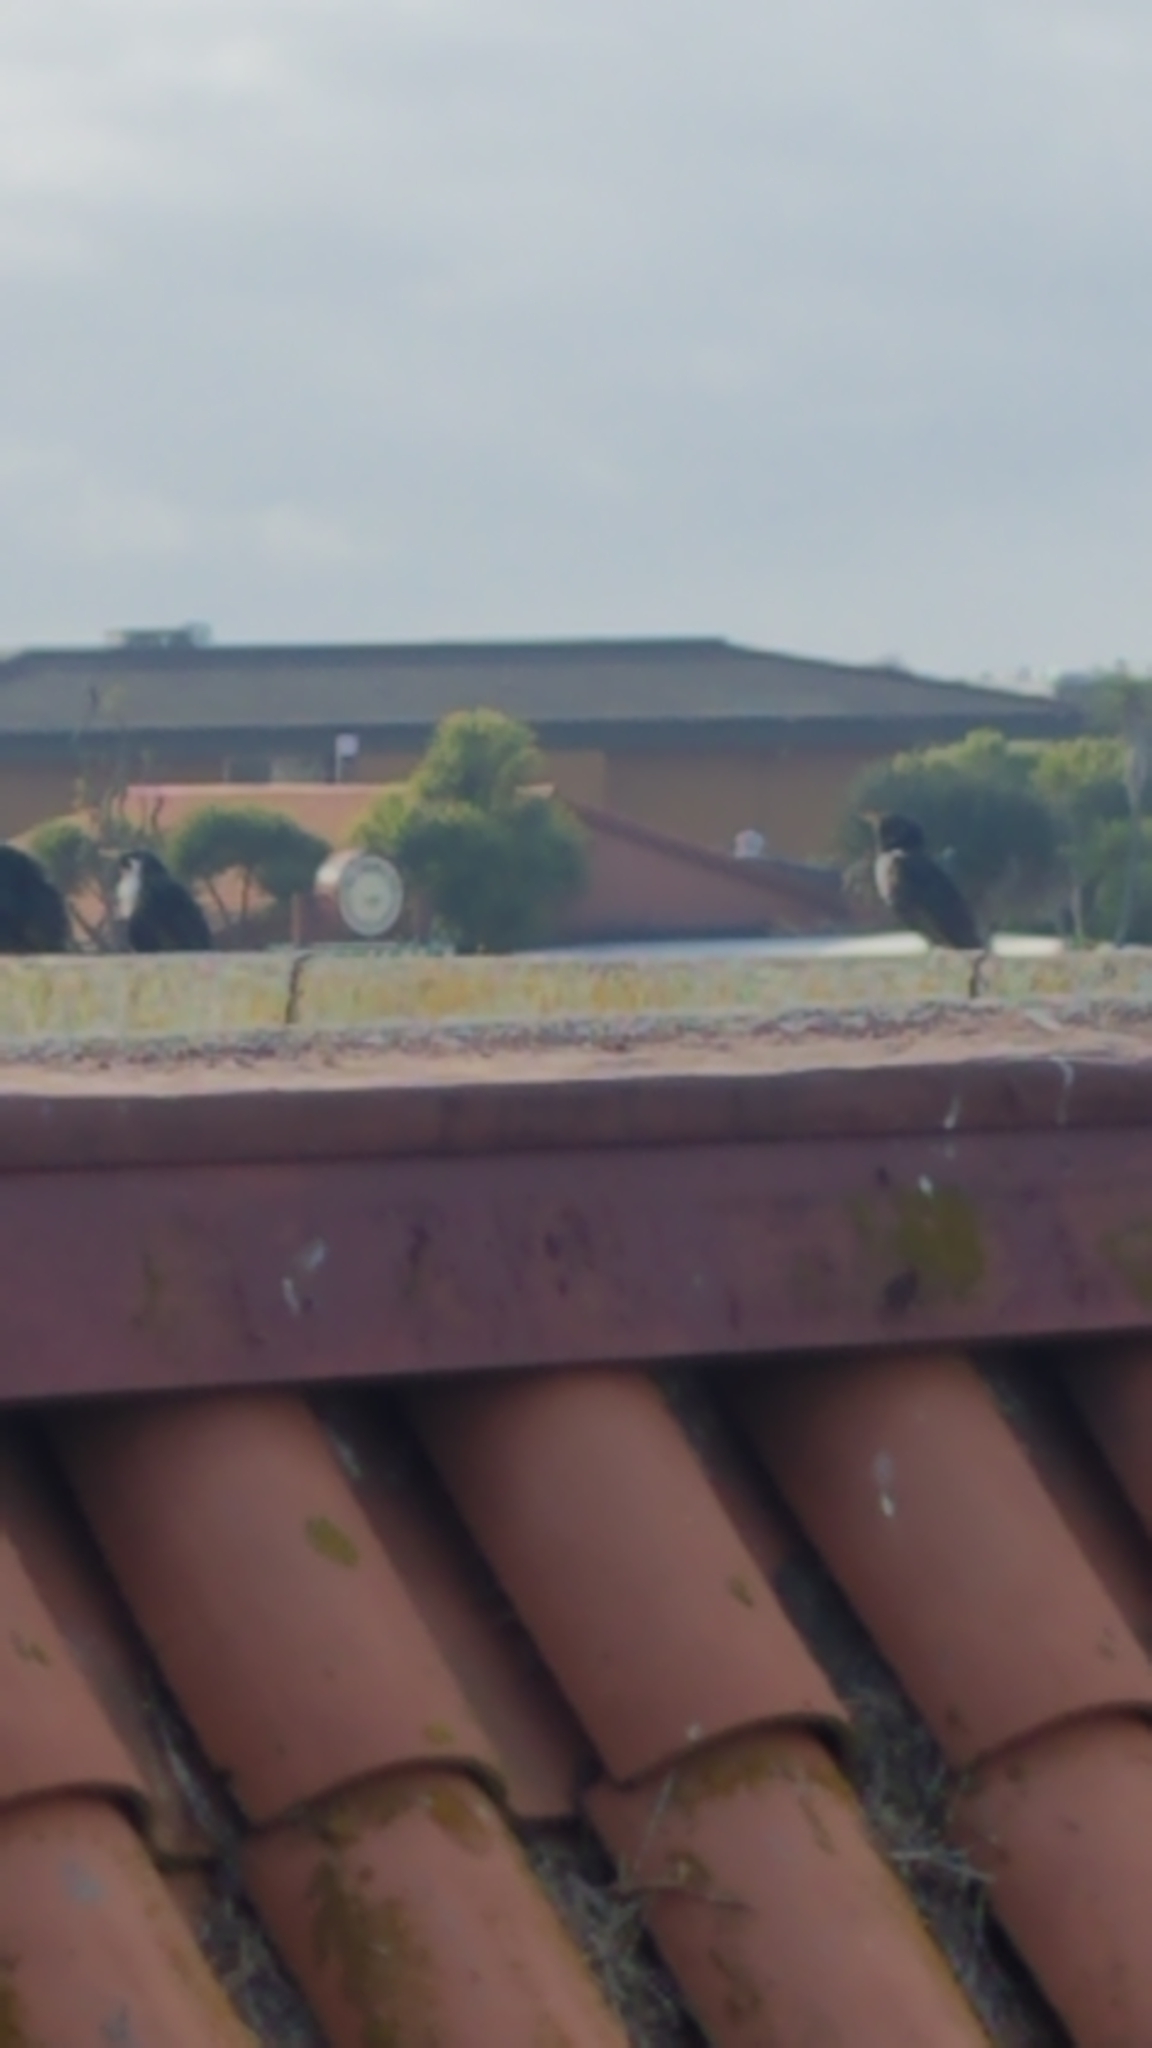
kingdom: Animalia
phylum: Chordata
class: Aves
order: Passeriformes
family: Sturnidae
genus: Sturnus
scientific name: Sturnus vulgaris
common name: Common starling
